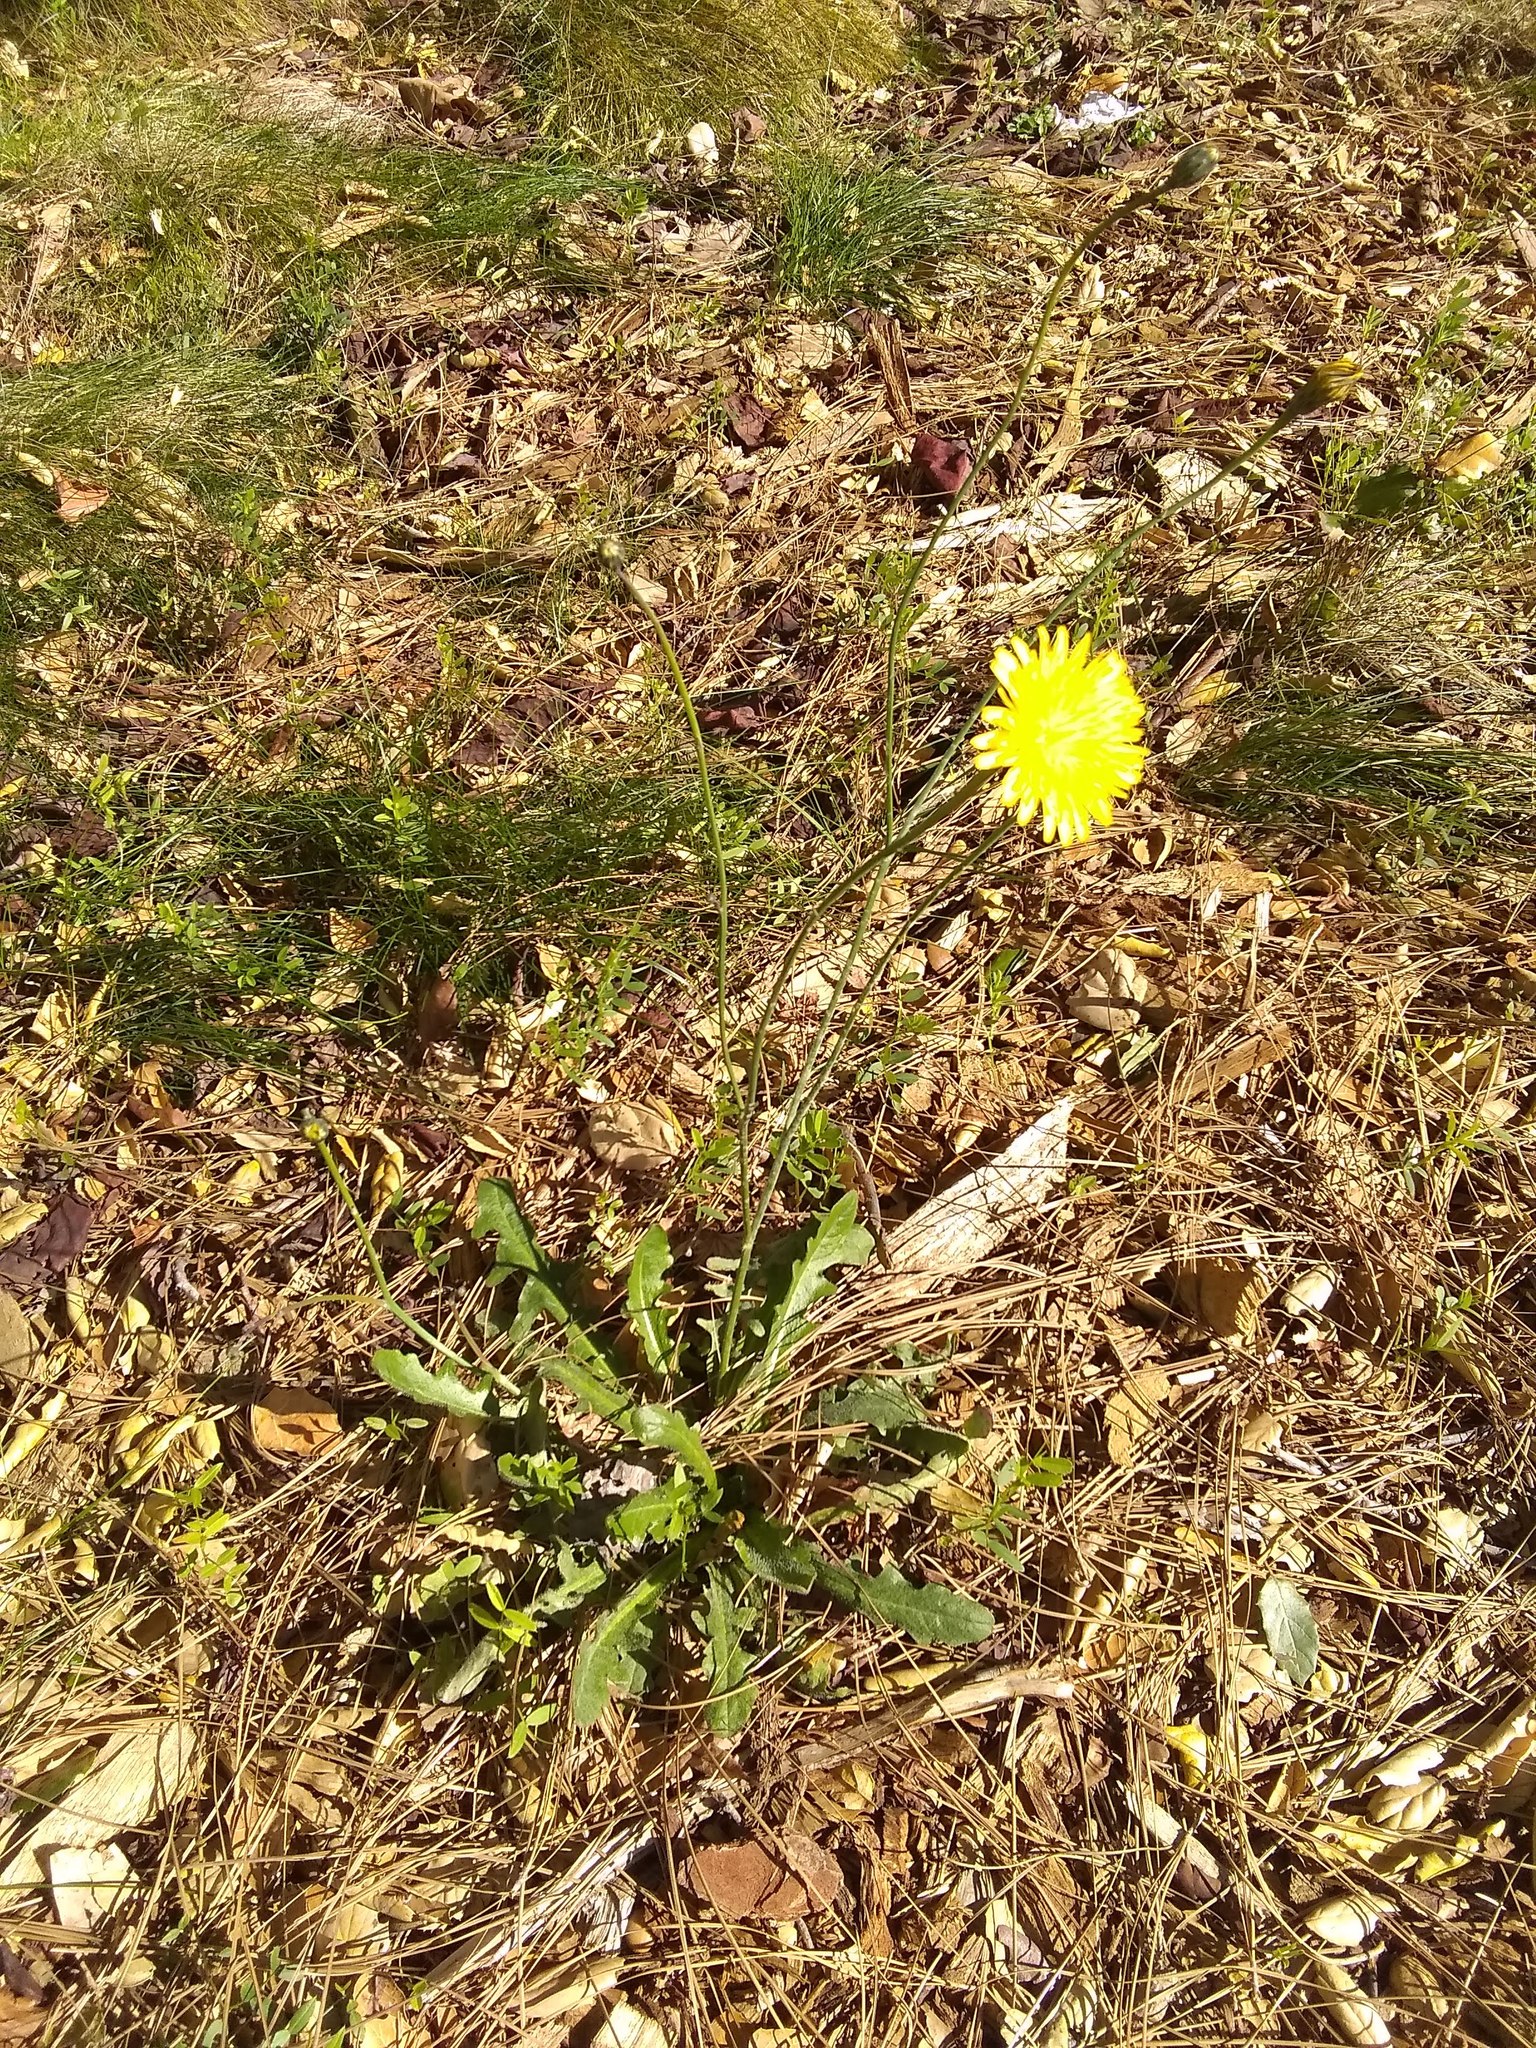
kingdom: Plantae
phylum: Tracheophyta
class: Magnoliopsida
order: Asterales
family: Asteraceae
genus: Hypochaeris
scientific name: Hypochaeris radicata
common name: Flatweed
